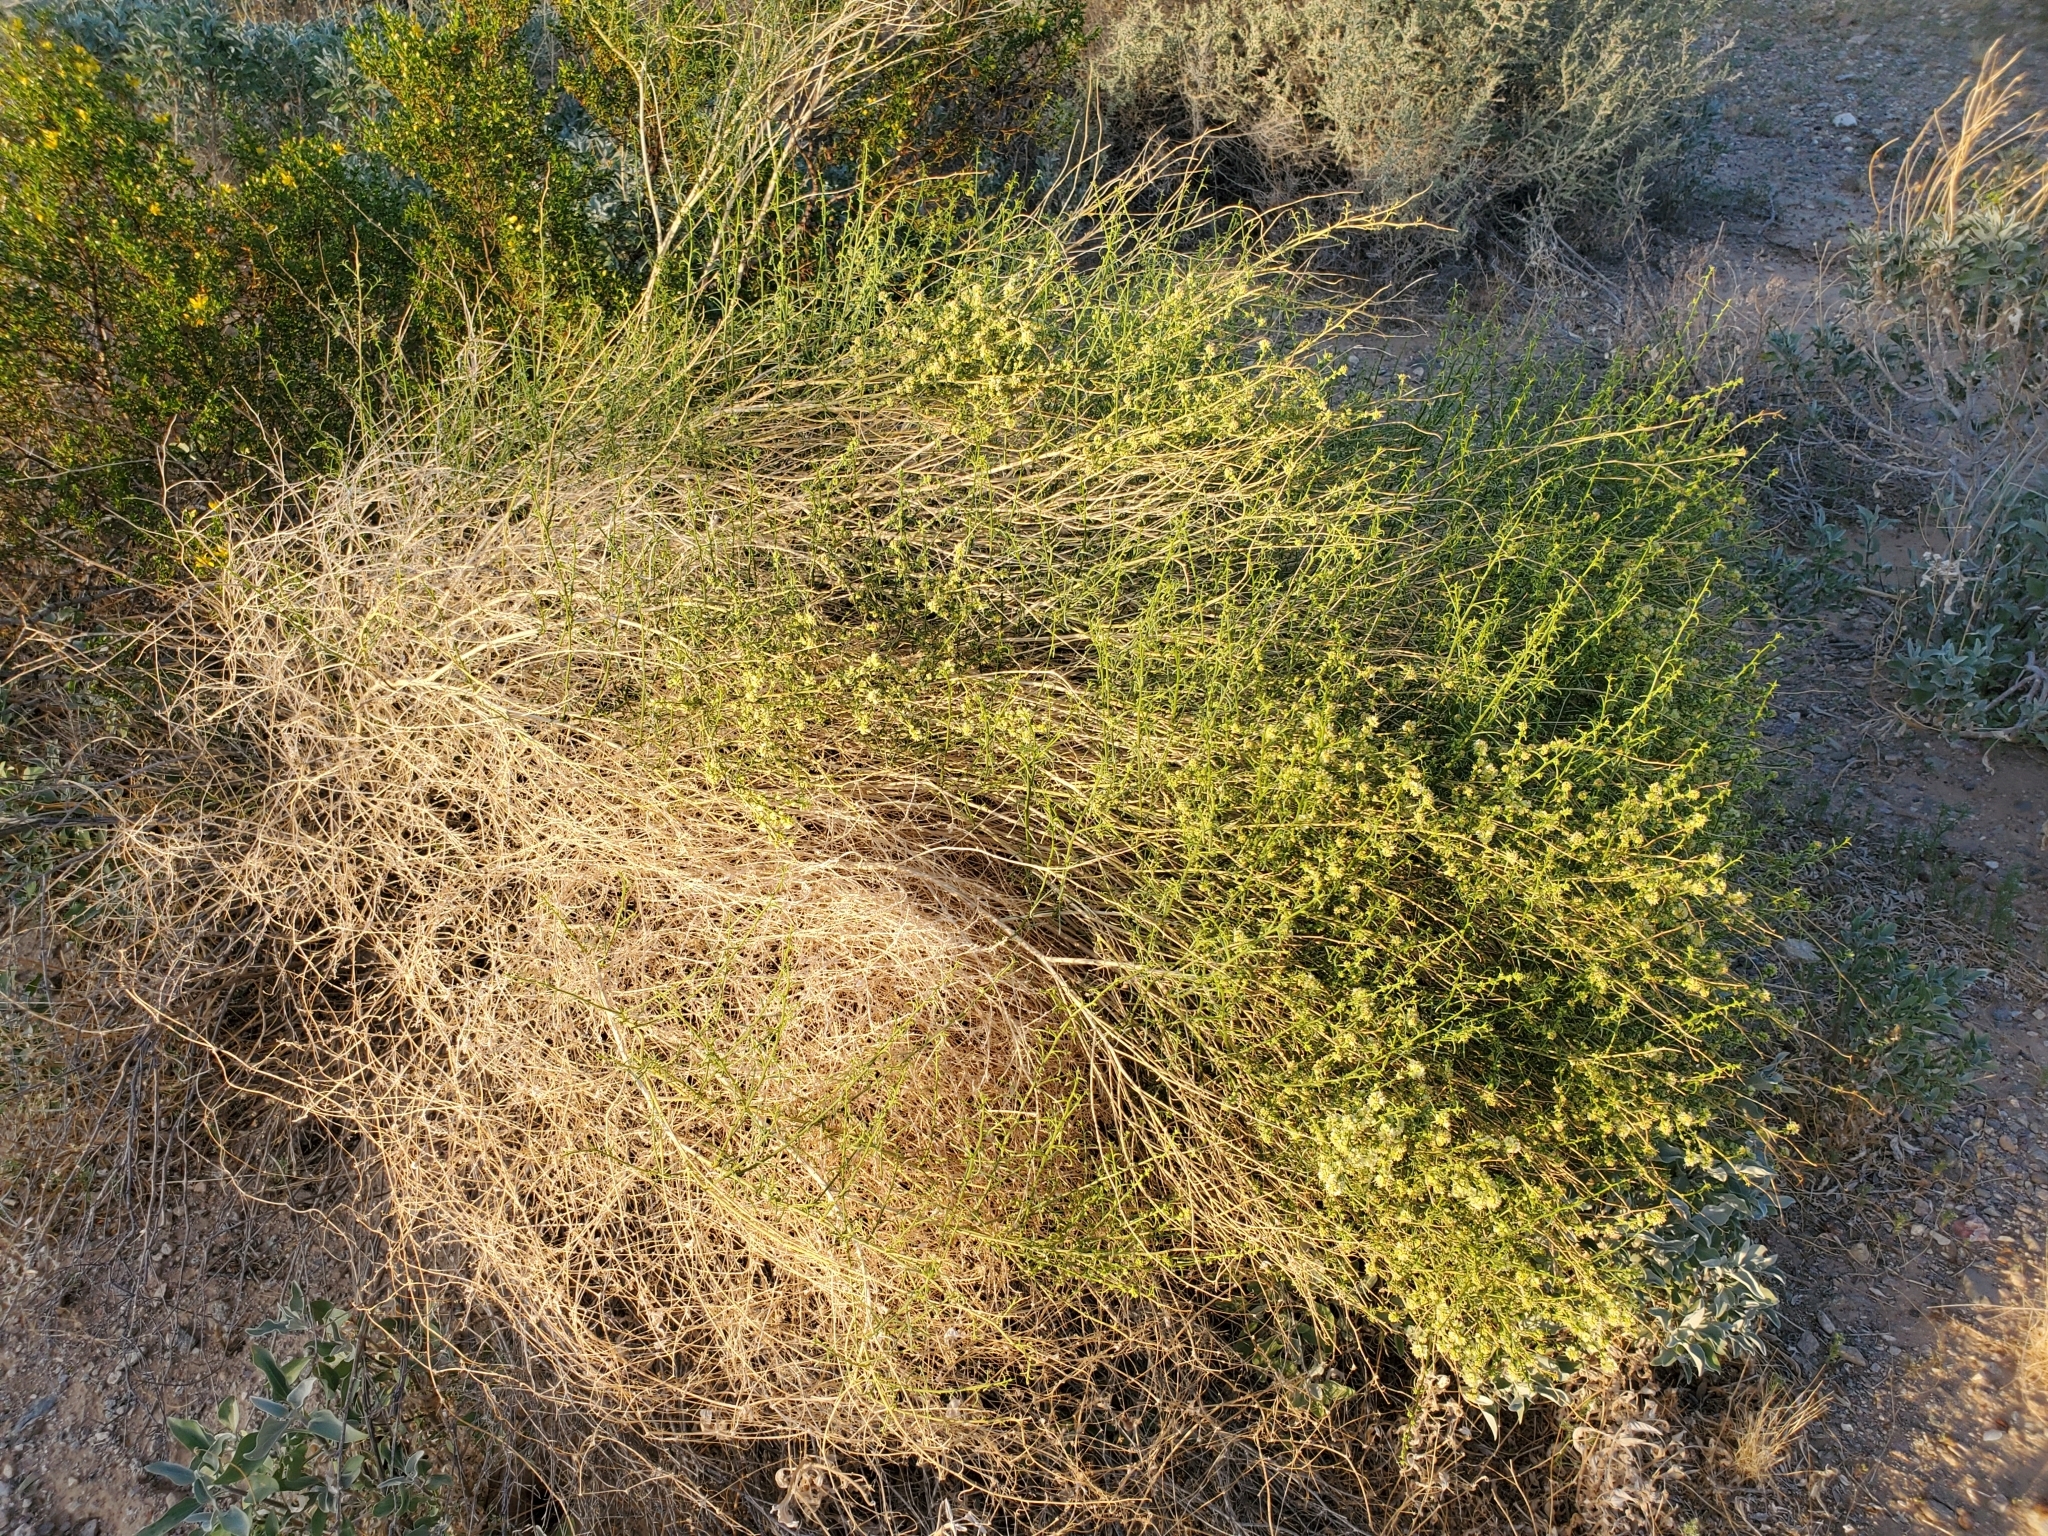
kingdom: Plantae
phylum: Tracheophyta
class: Magnoliopsida
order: Asterales
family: Asteraceae
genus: Ambrosia
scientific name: Ambrosia salsola
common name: Burrobrush
